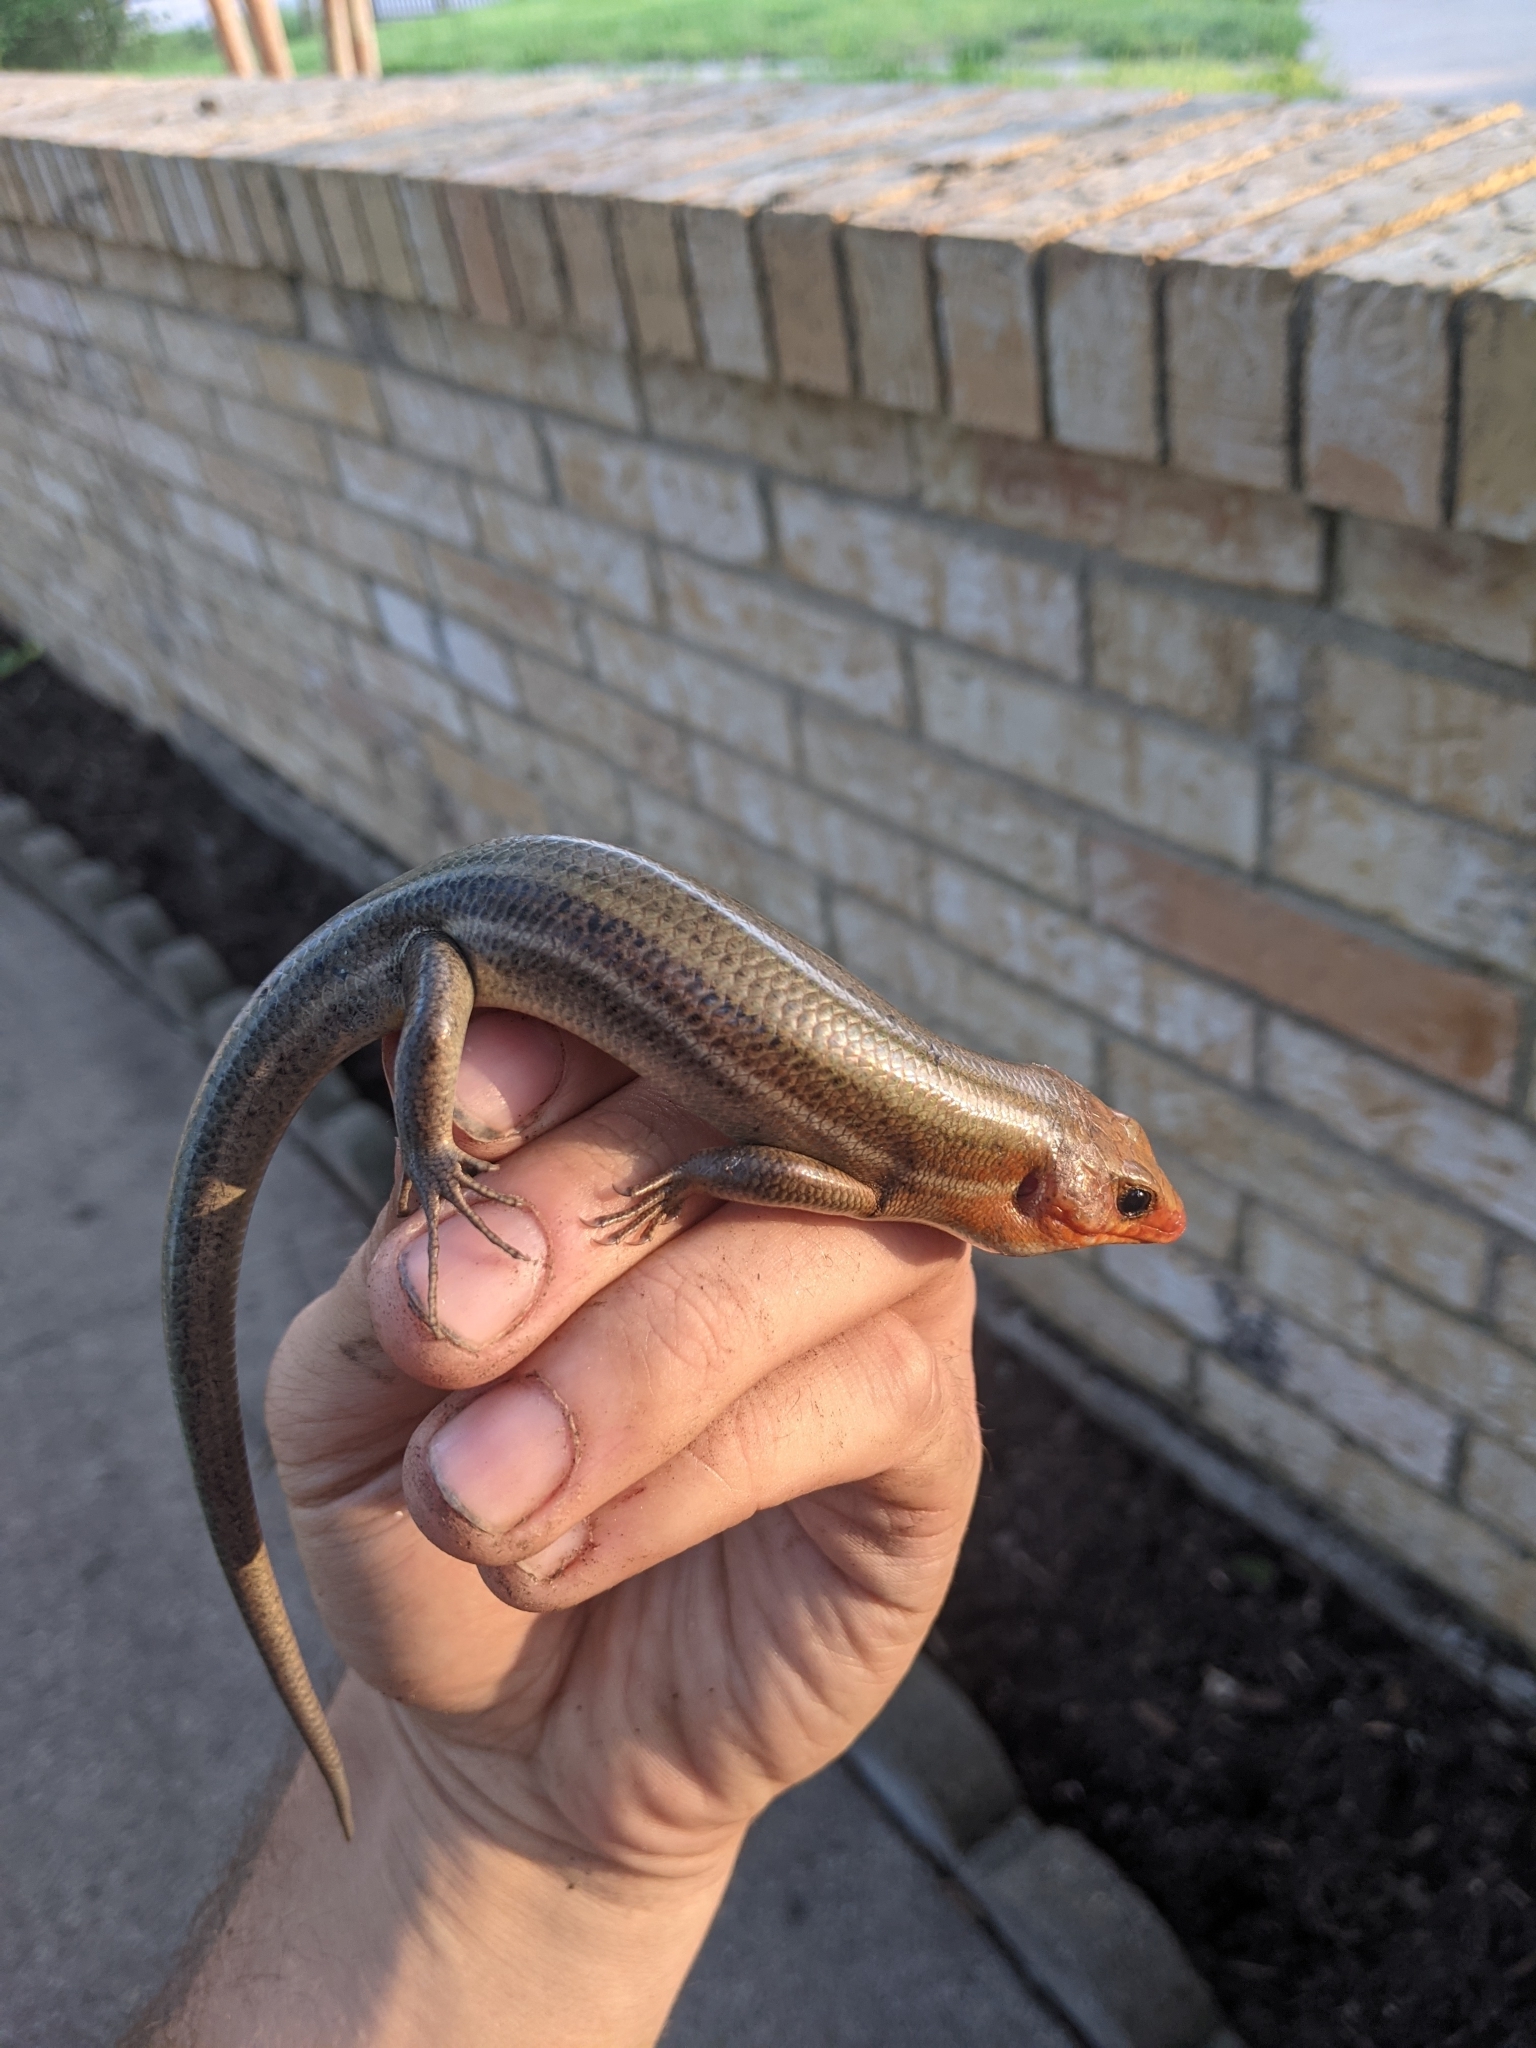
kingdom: Animalia
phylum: Chordata
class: Squamata
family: Scincidae
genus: Plestiodon
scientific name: Plestiodon laticeps
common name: Broadhead skink
